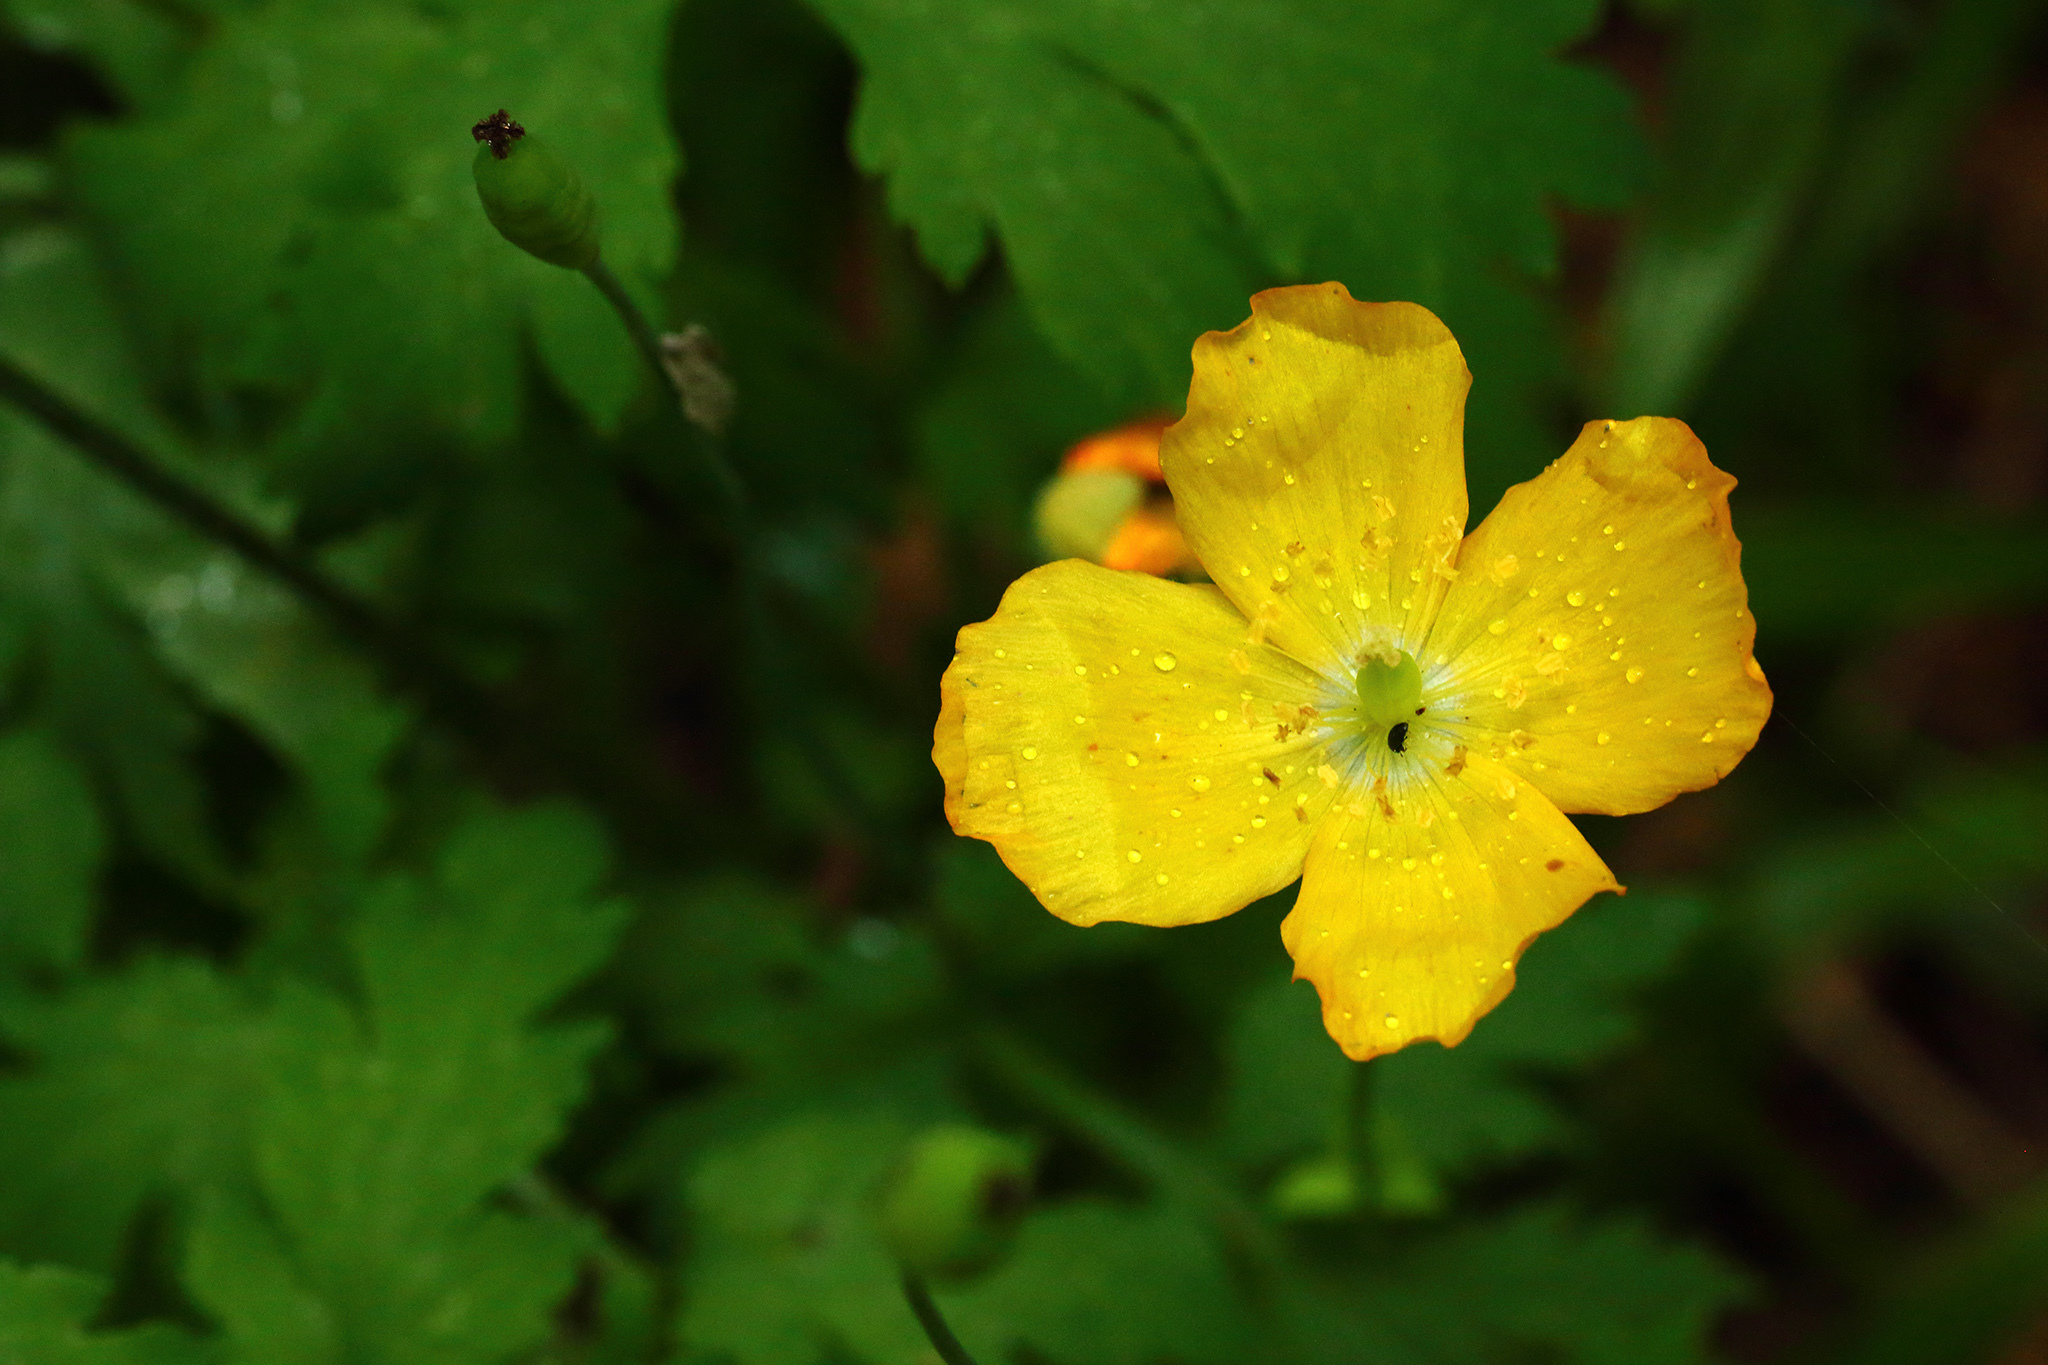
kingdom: Plantae
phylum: Tracheophyta
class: Magnoliopsida
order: Ranunculales
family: Papaveraceae
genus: Papaver
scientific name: Papaver cambricum
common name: Poppy
